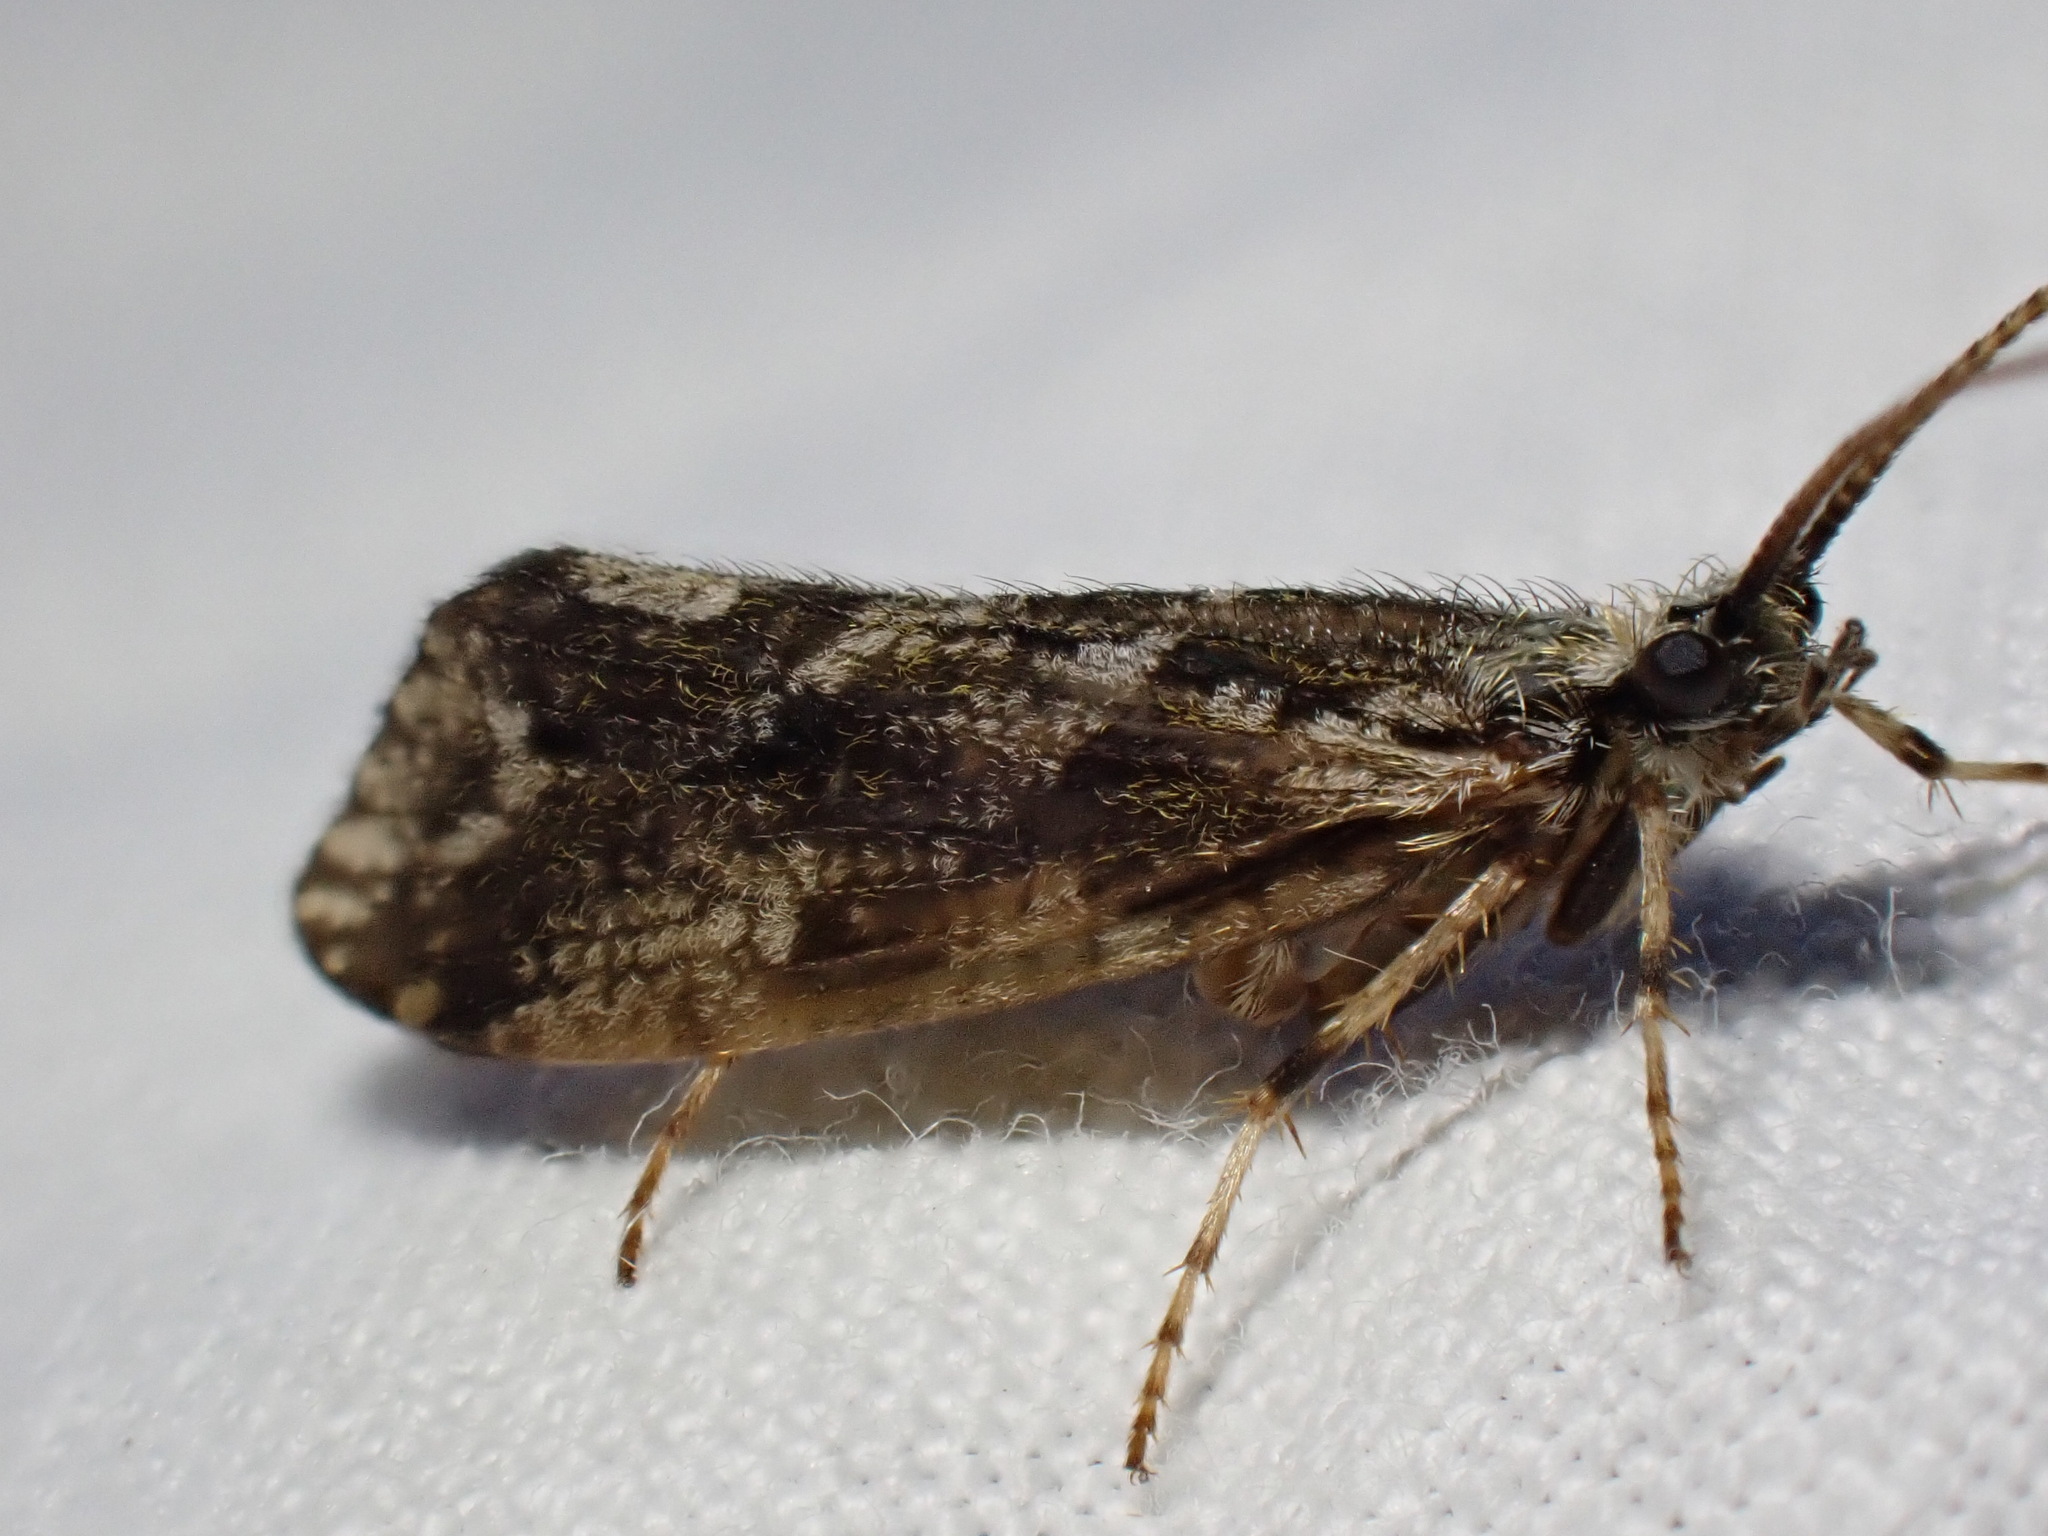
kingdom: Animalia
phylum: Arthropoda
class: Insecta
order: Trichoptera
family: Phryganeidae
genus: Trichostegia
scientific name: Trichostegia minor
